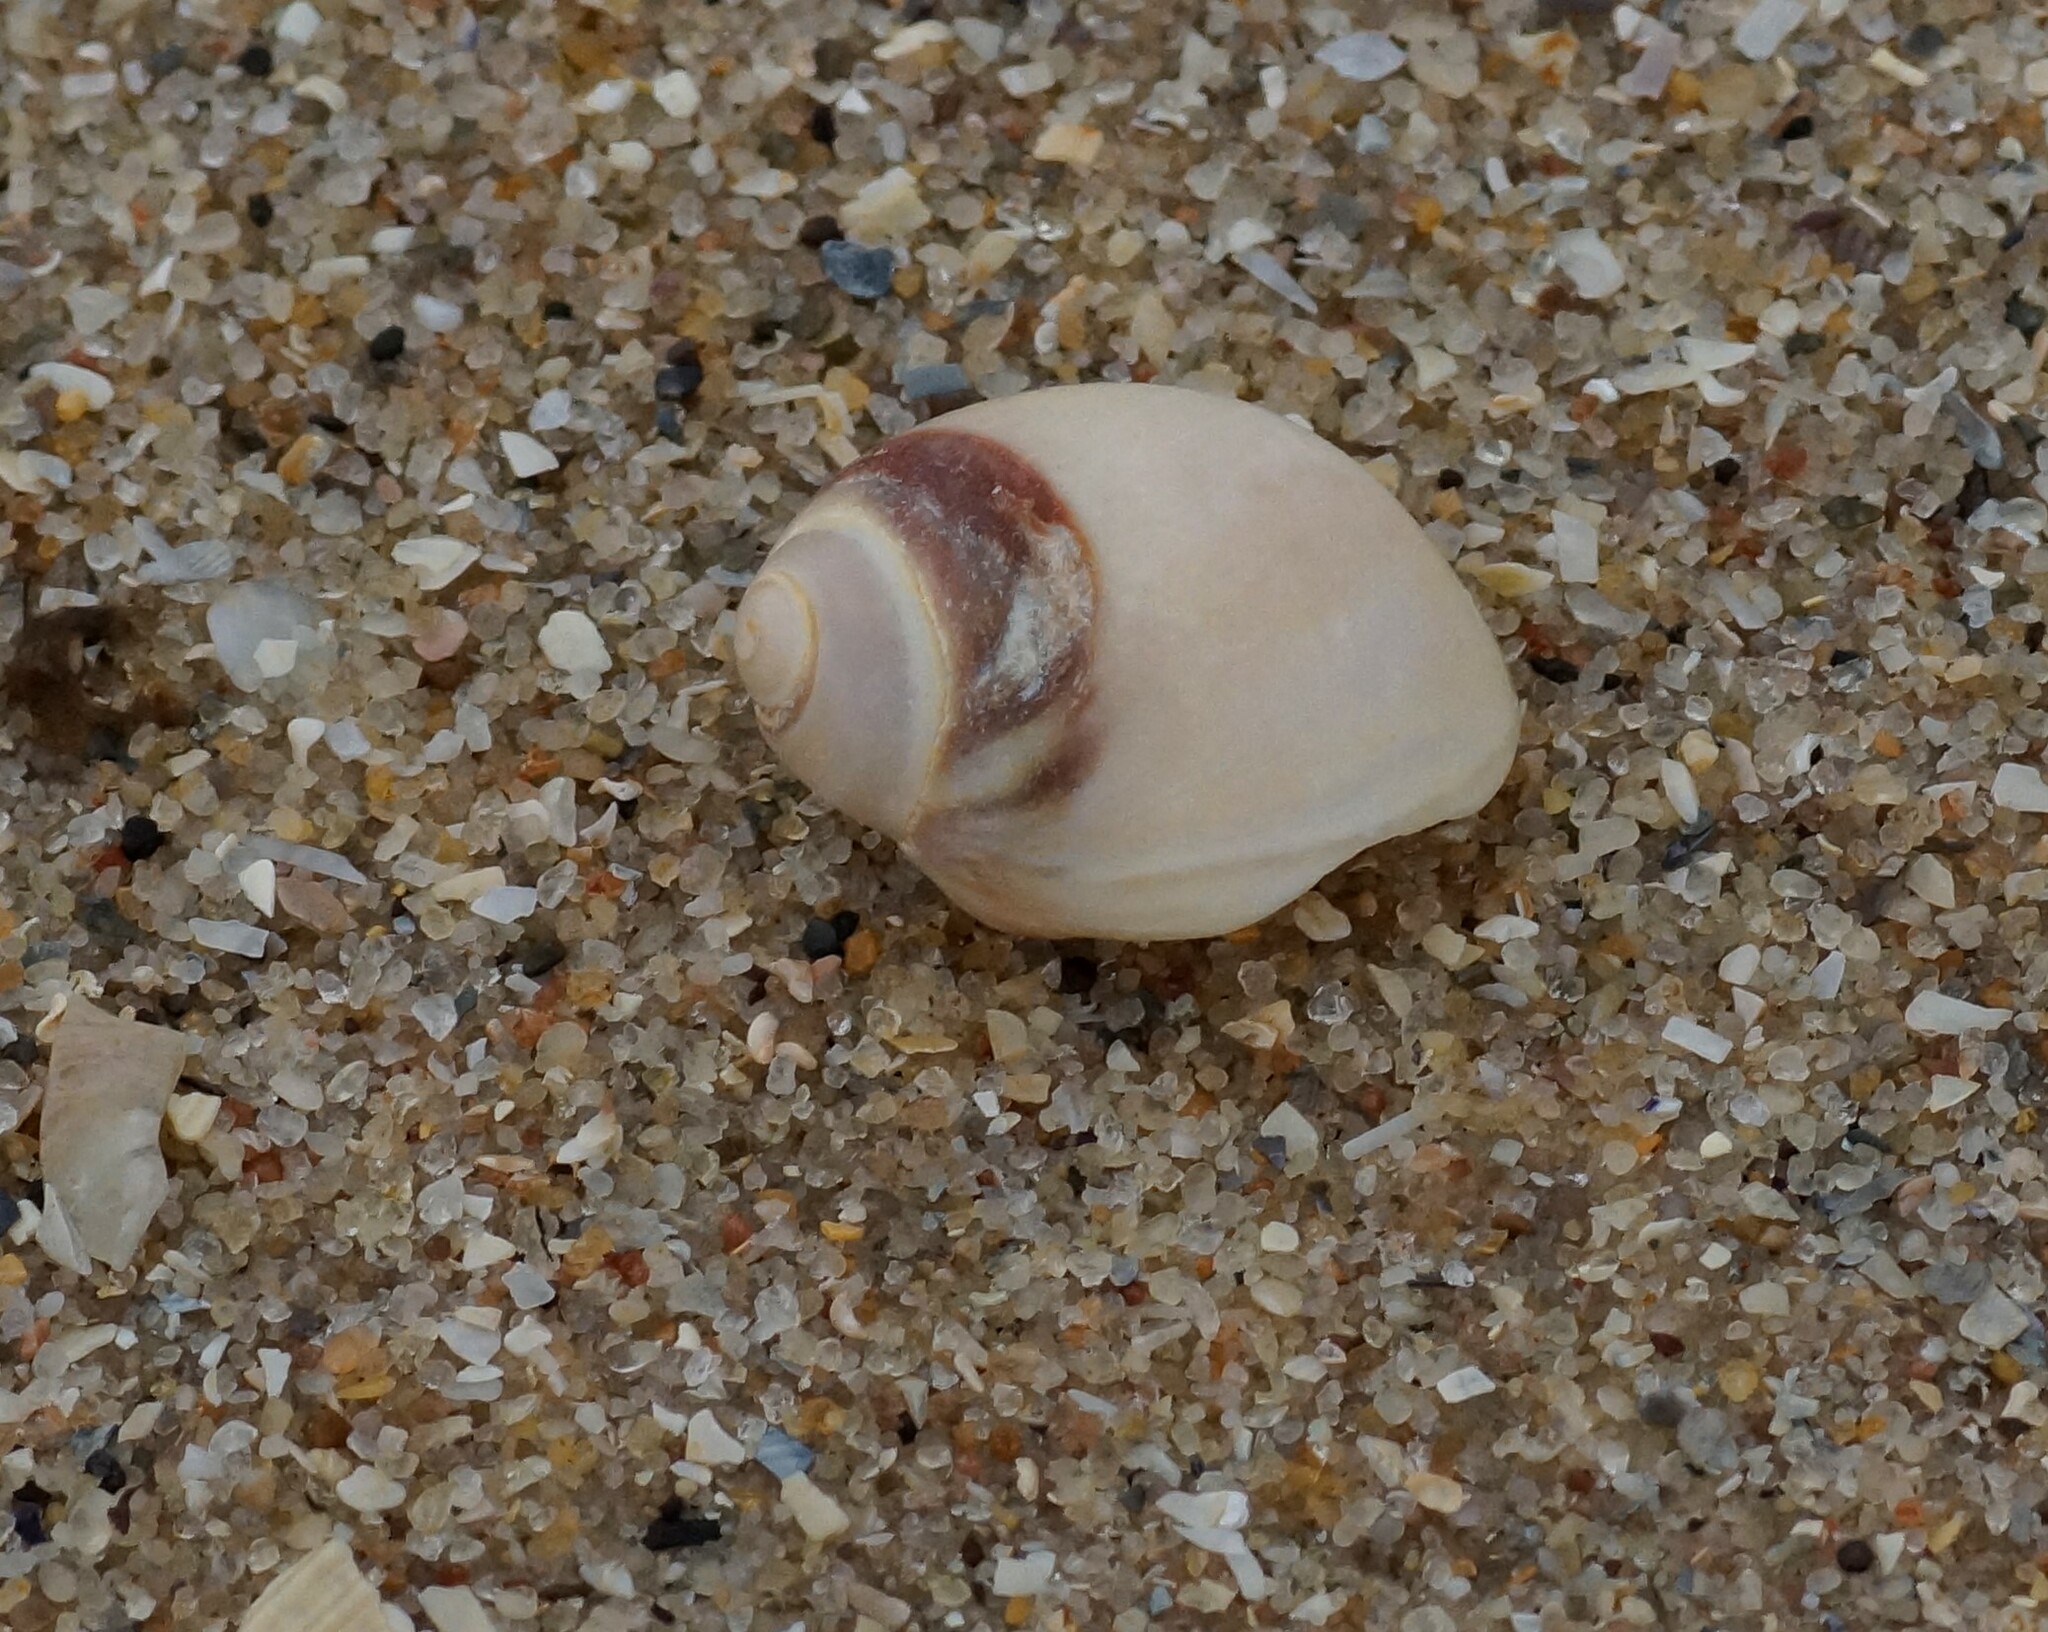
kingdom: Animalia
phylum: Mollusca
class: Gastropoda
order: Littorinimorpha
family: Naticidae
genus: Conuber
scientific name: Conuber conicum
